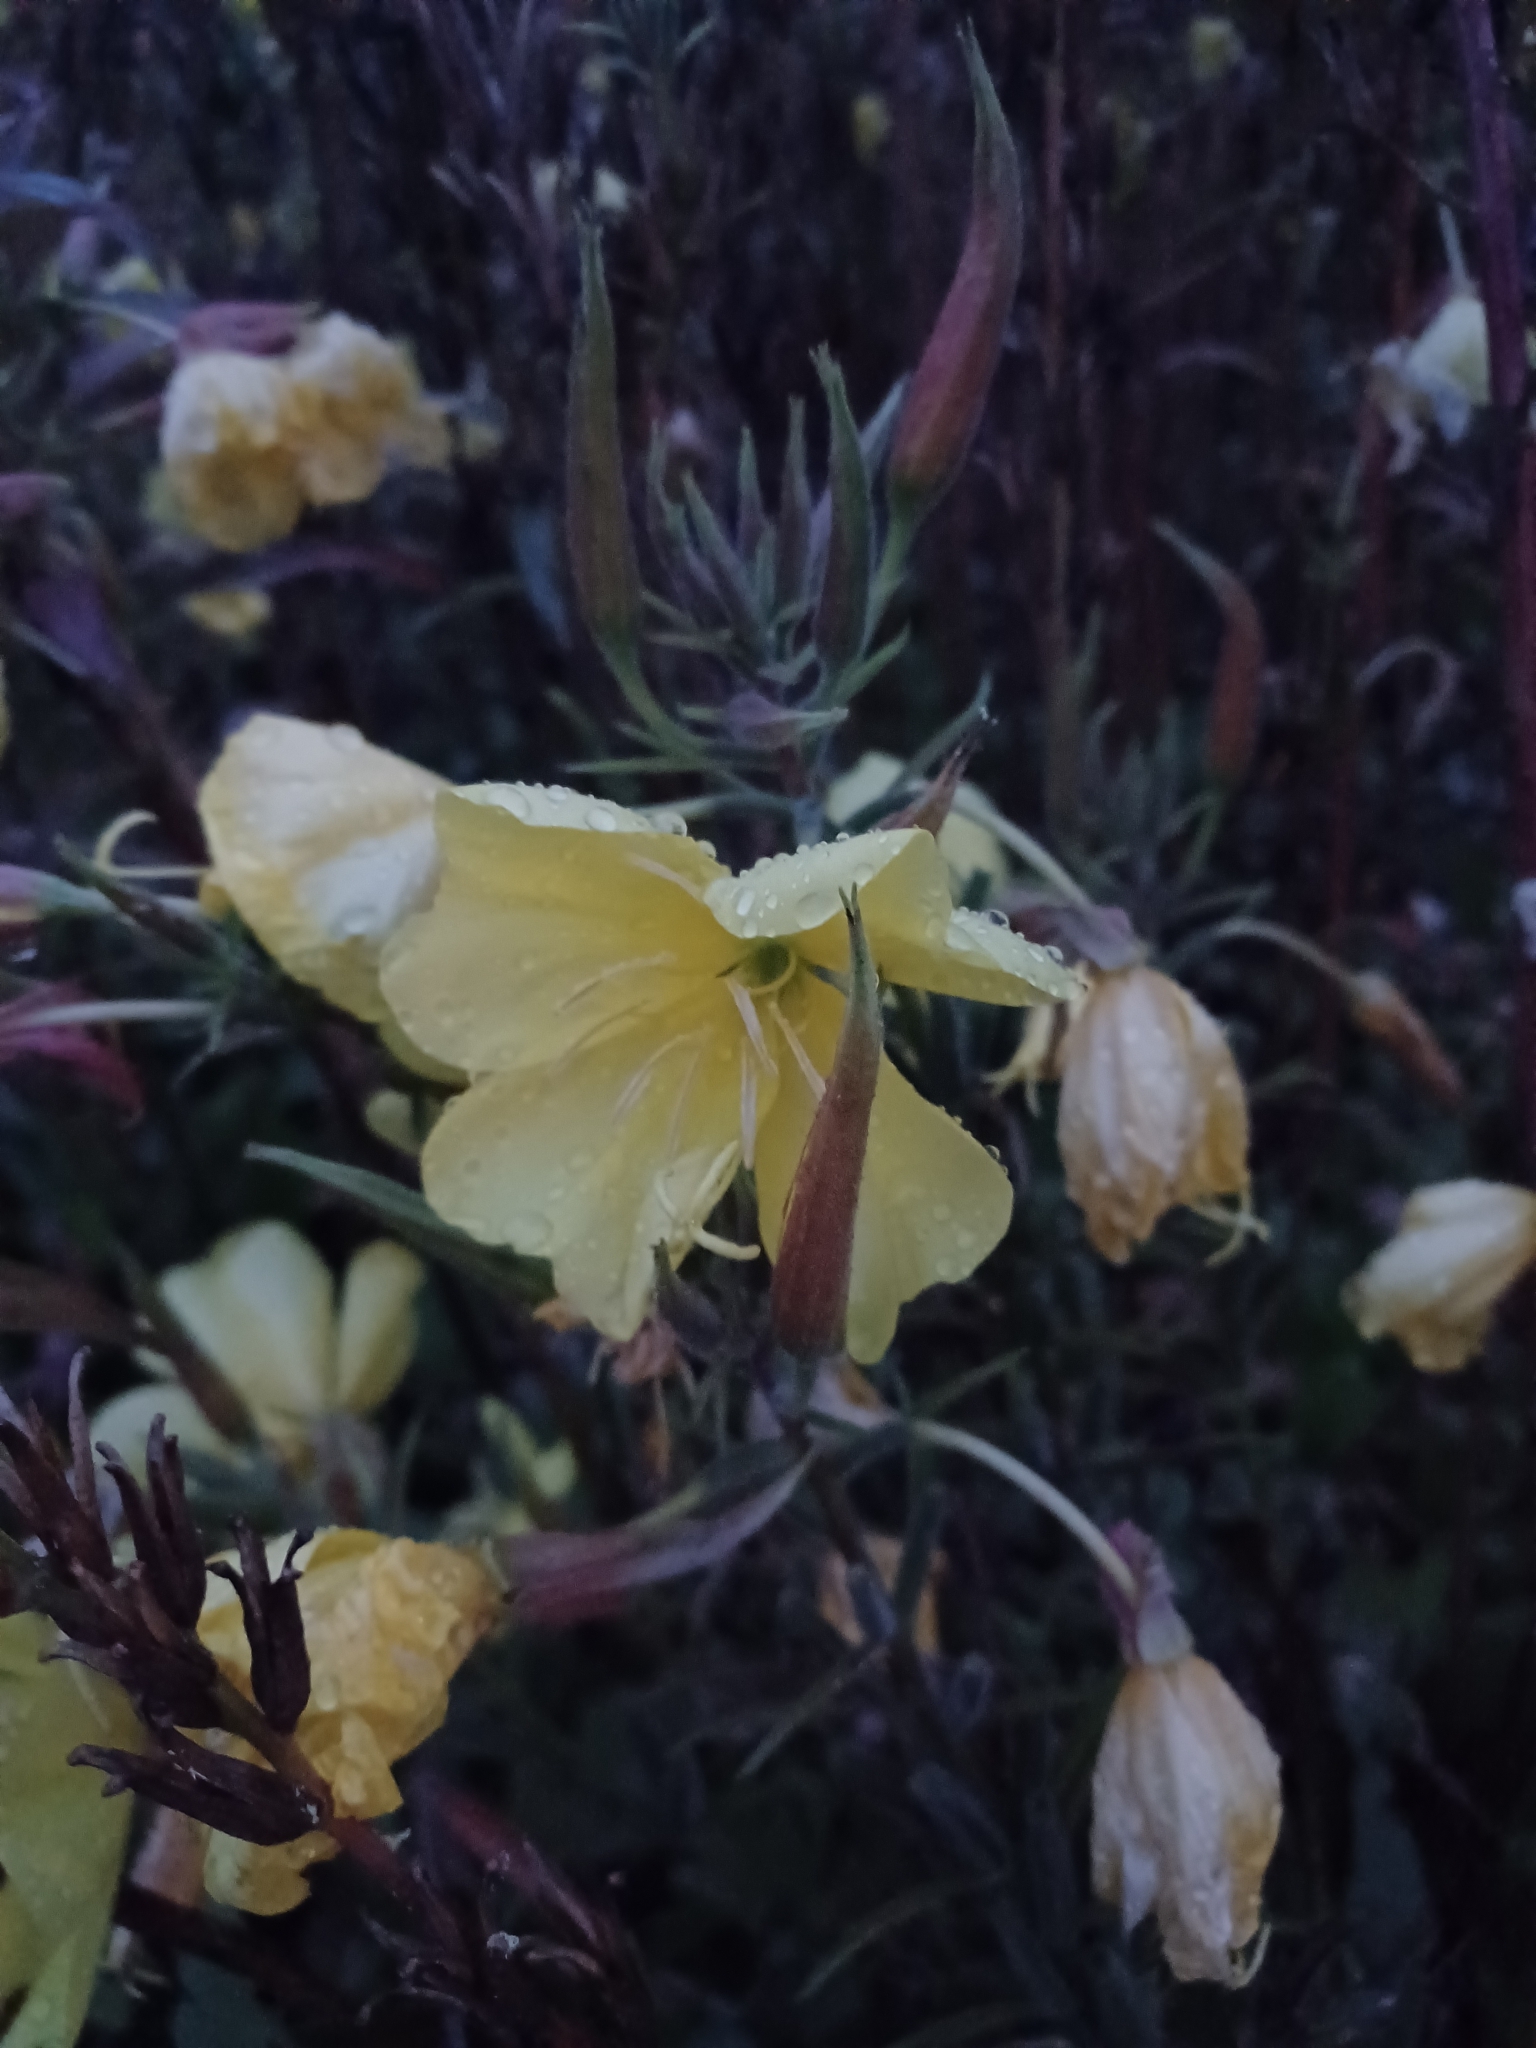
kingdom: Plantae
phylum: Tracheophyta
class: Magnoliopsida
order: Myrtales
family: Onagraceae
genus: Oenothera
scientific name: Oenothera glazioviana
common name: Large-flowered evening-primrose
